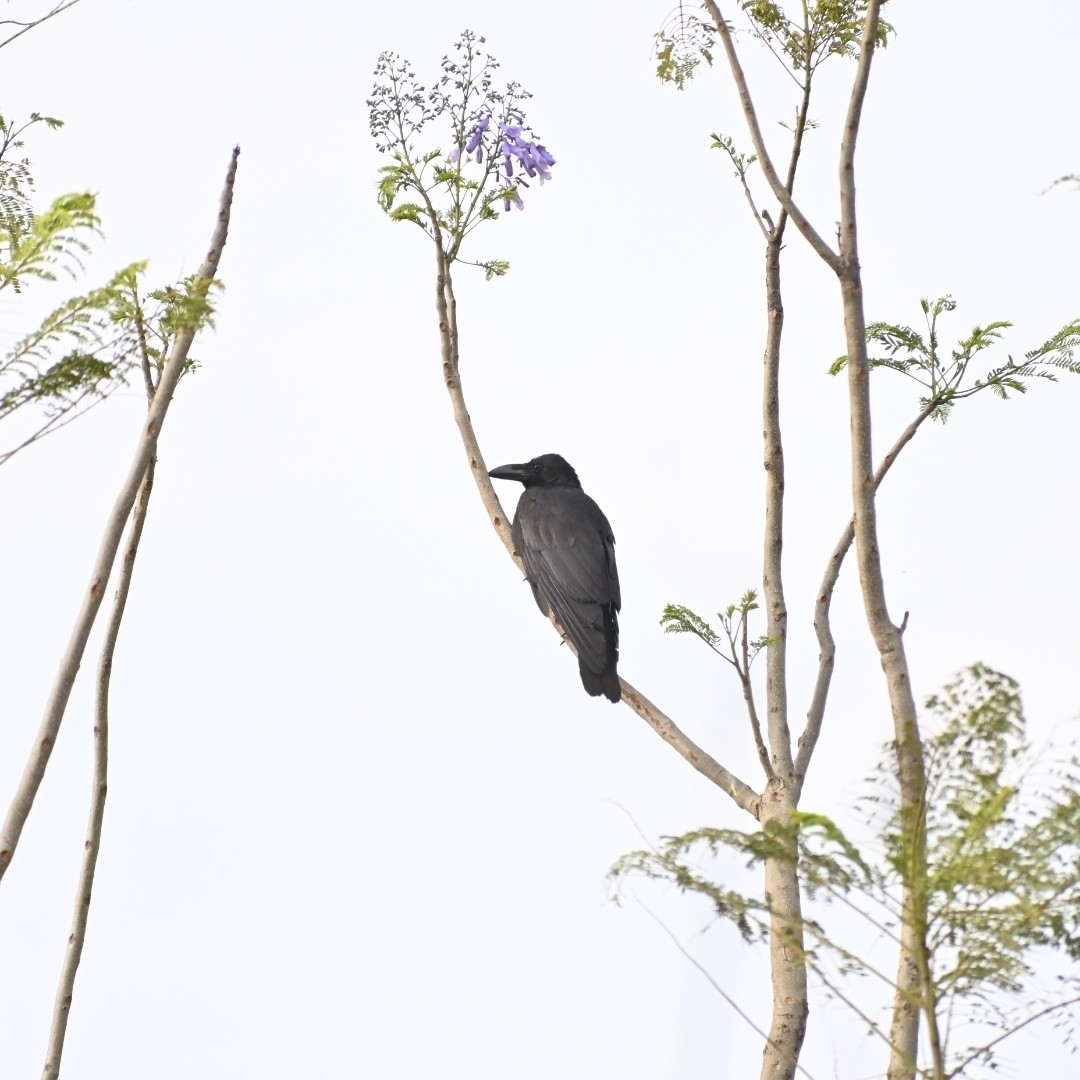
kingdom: Animalia
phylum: Chordata
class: Aves
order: Passeriformes
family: Corvidae
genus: Corvus
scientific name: Corvus macrorhynchos
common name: Large-billed crow
